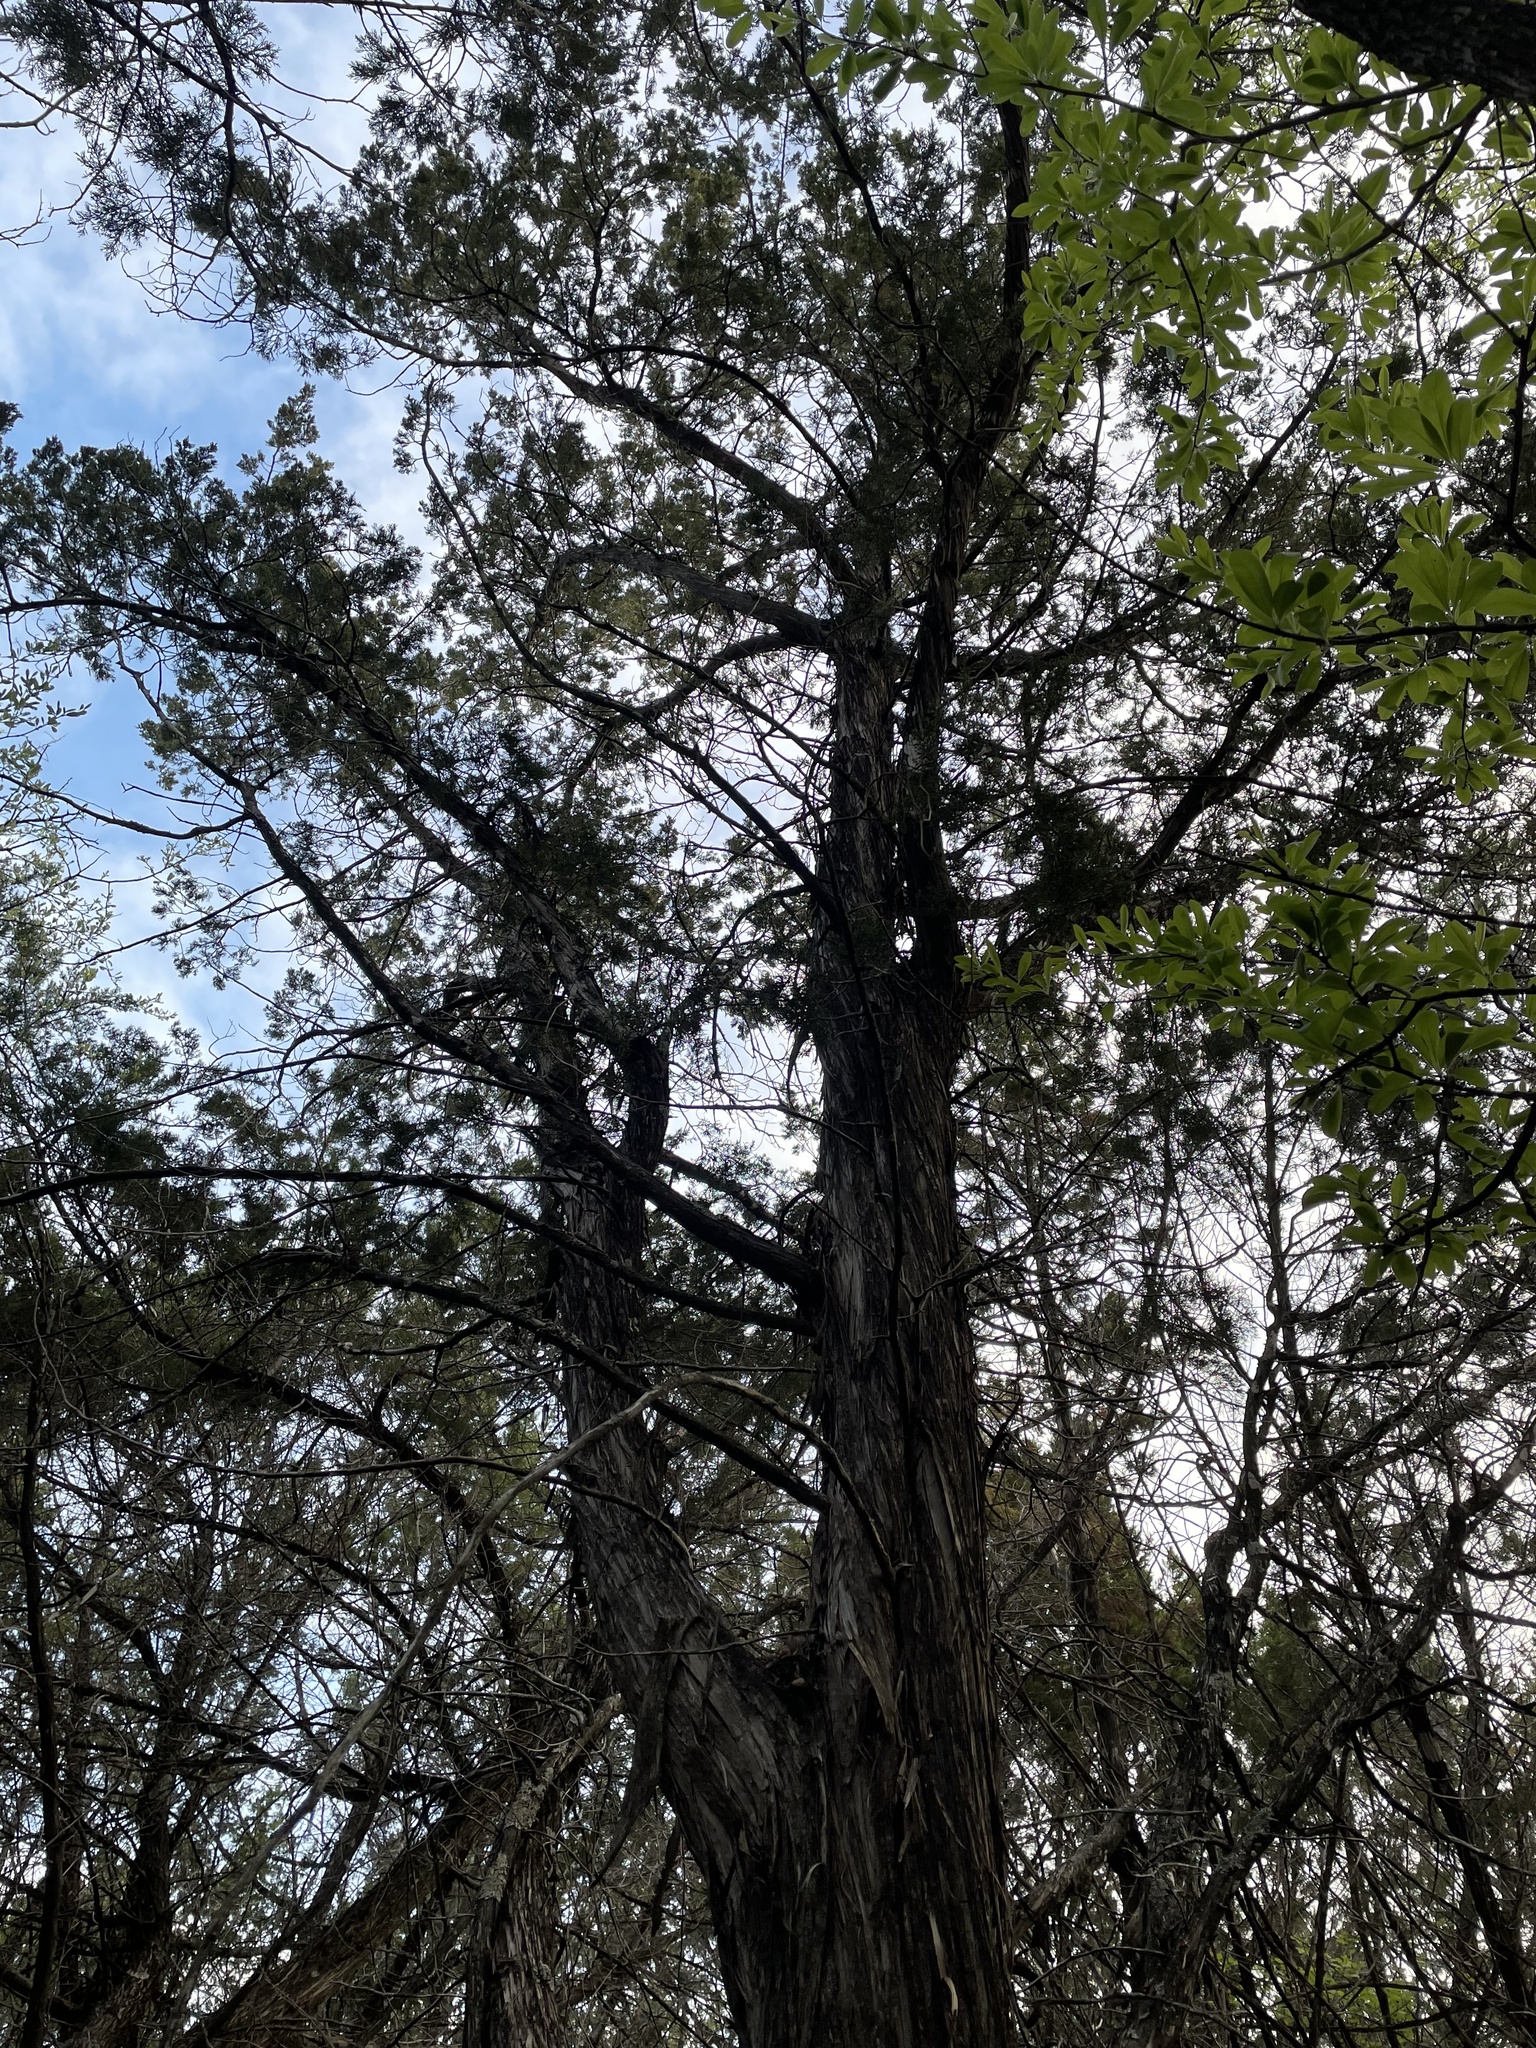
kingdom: Plantae
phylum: Tracheophyta
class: Pinopsida
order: Pinales
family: Cupressaceae
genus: Juniperus
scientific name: Juniperus ashei
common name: Mexican juniper
